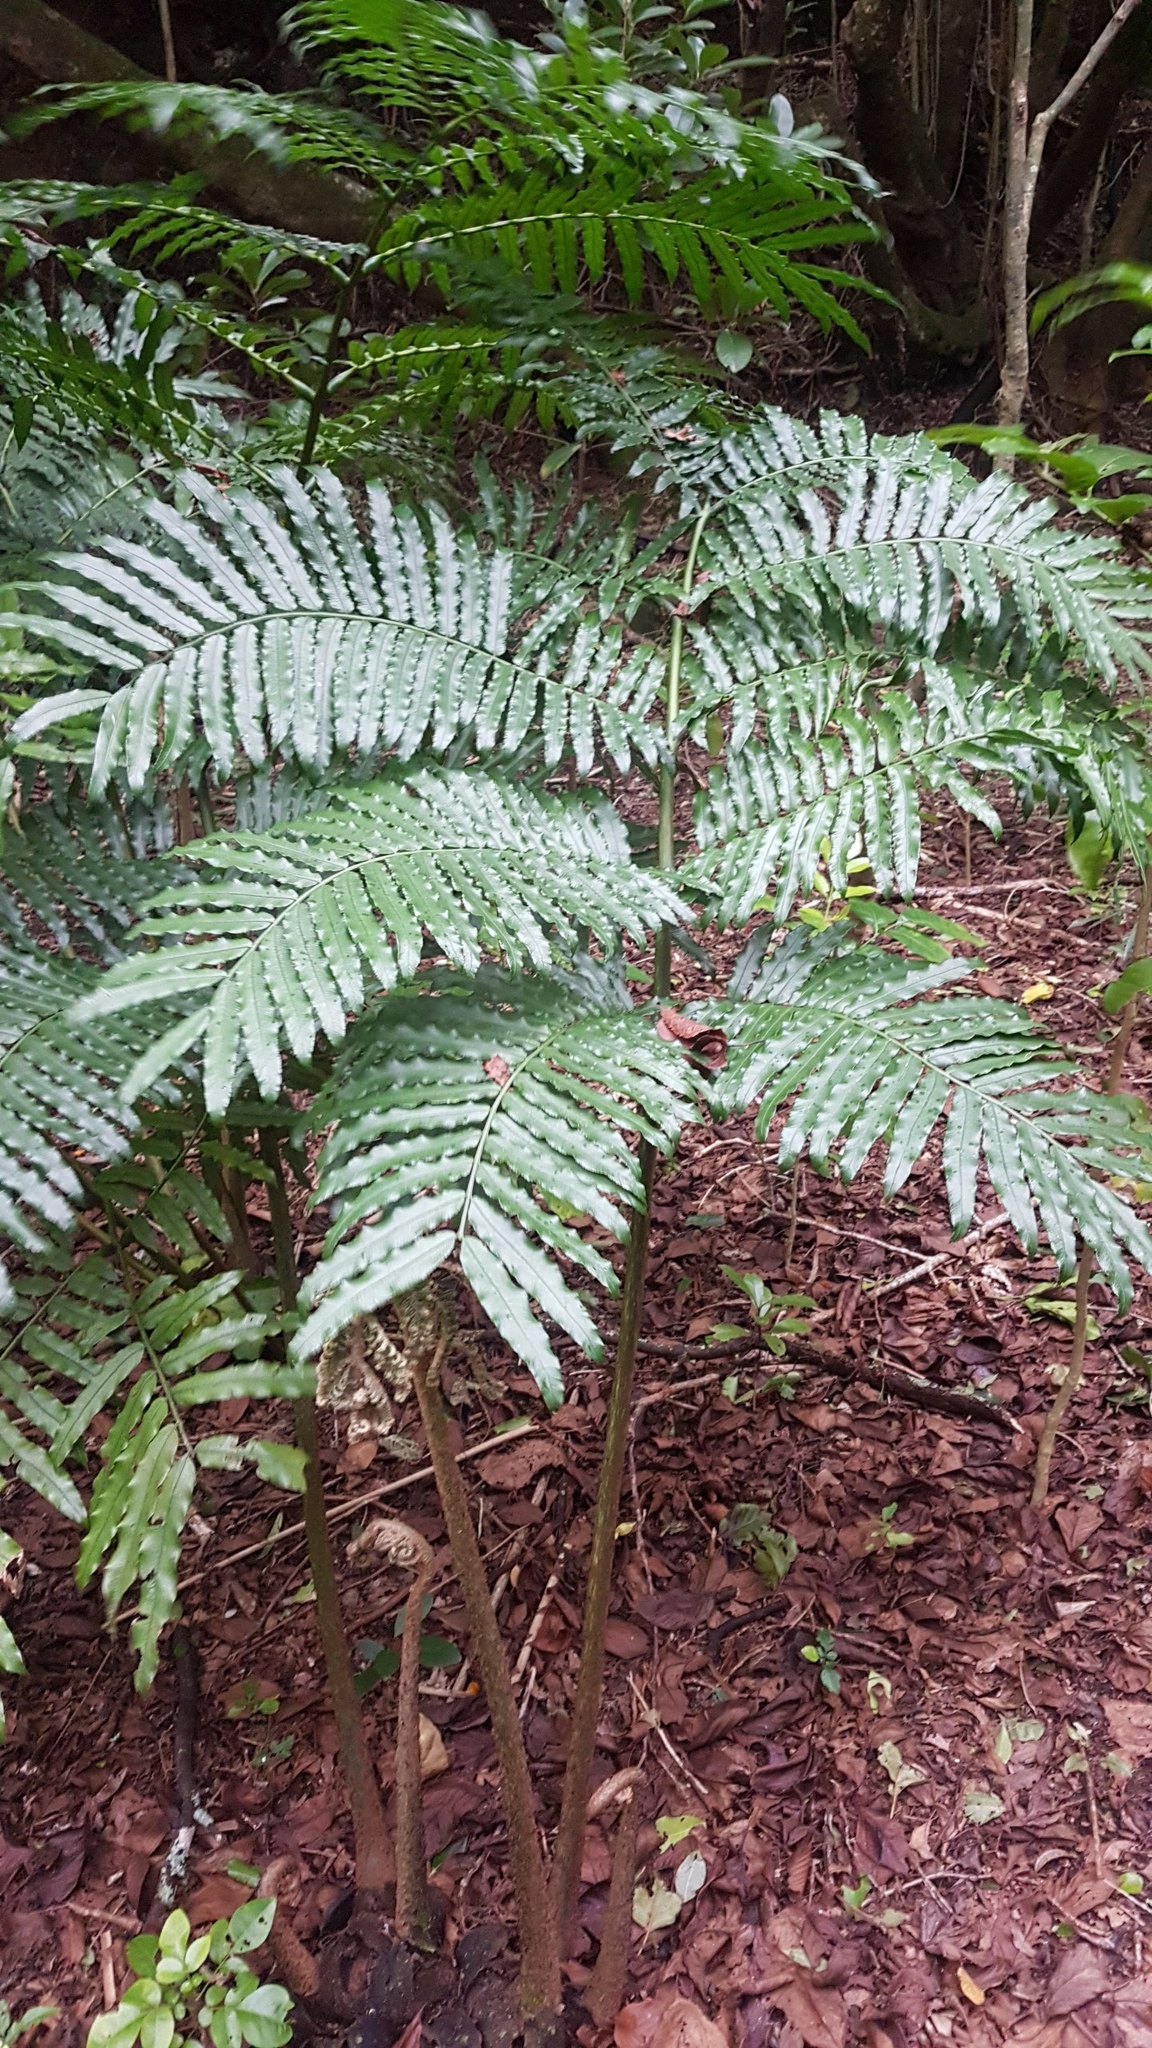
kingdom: Plantae
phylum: Tracheophyta
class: Polypodiopsida
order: Marattiales
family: Marattiaceae
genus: Ptisana
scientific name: Ptisana salicina
